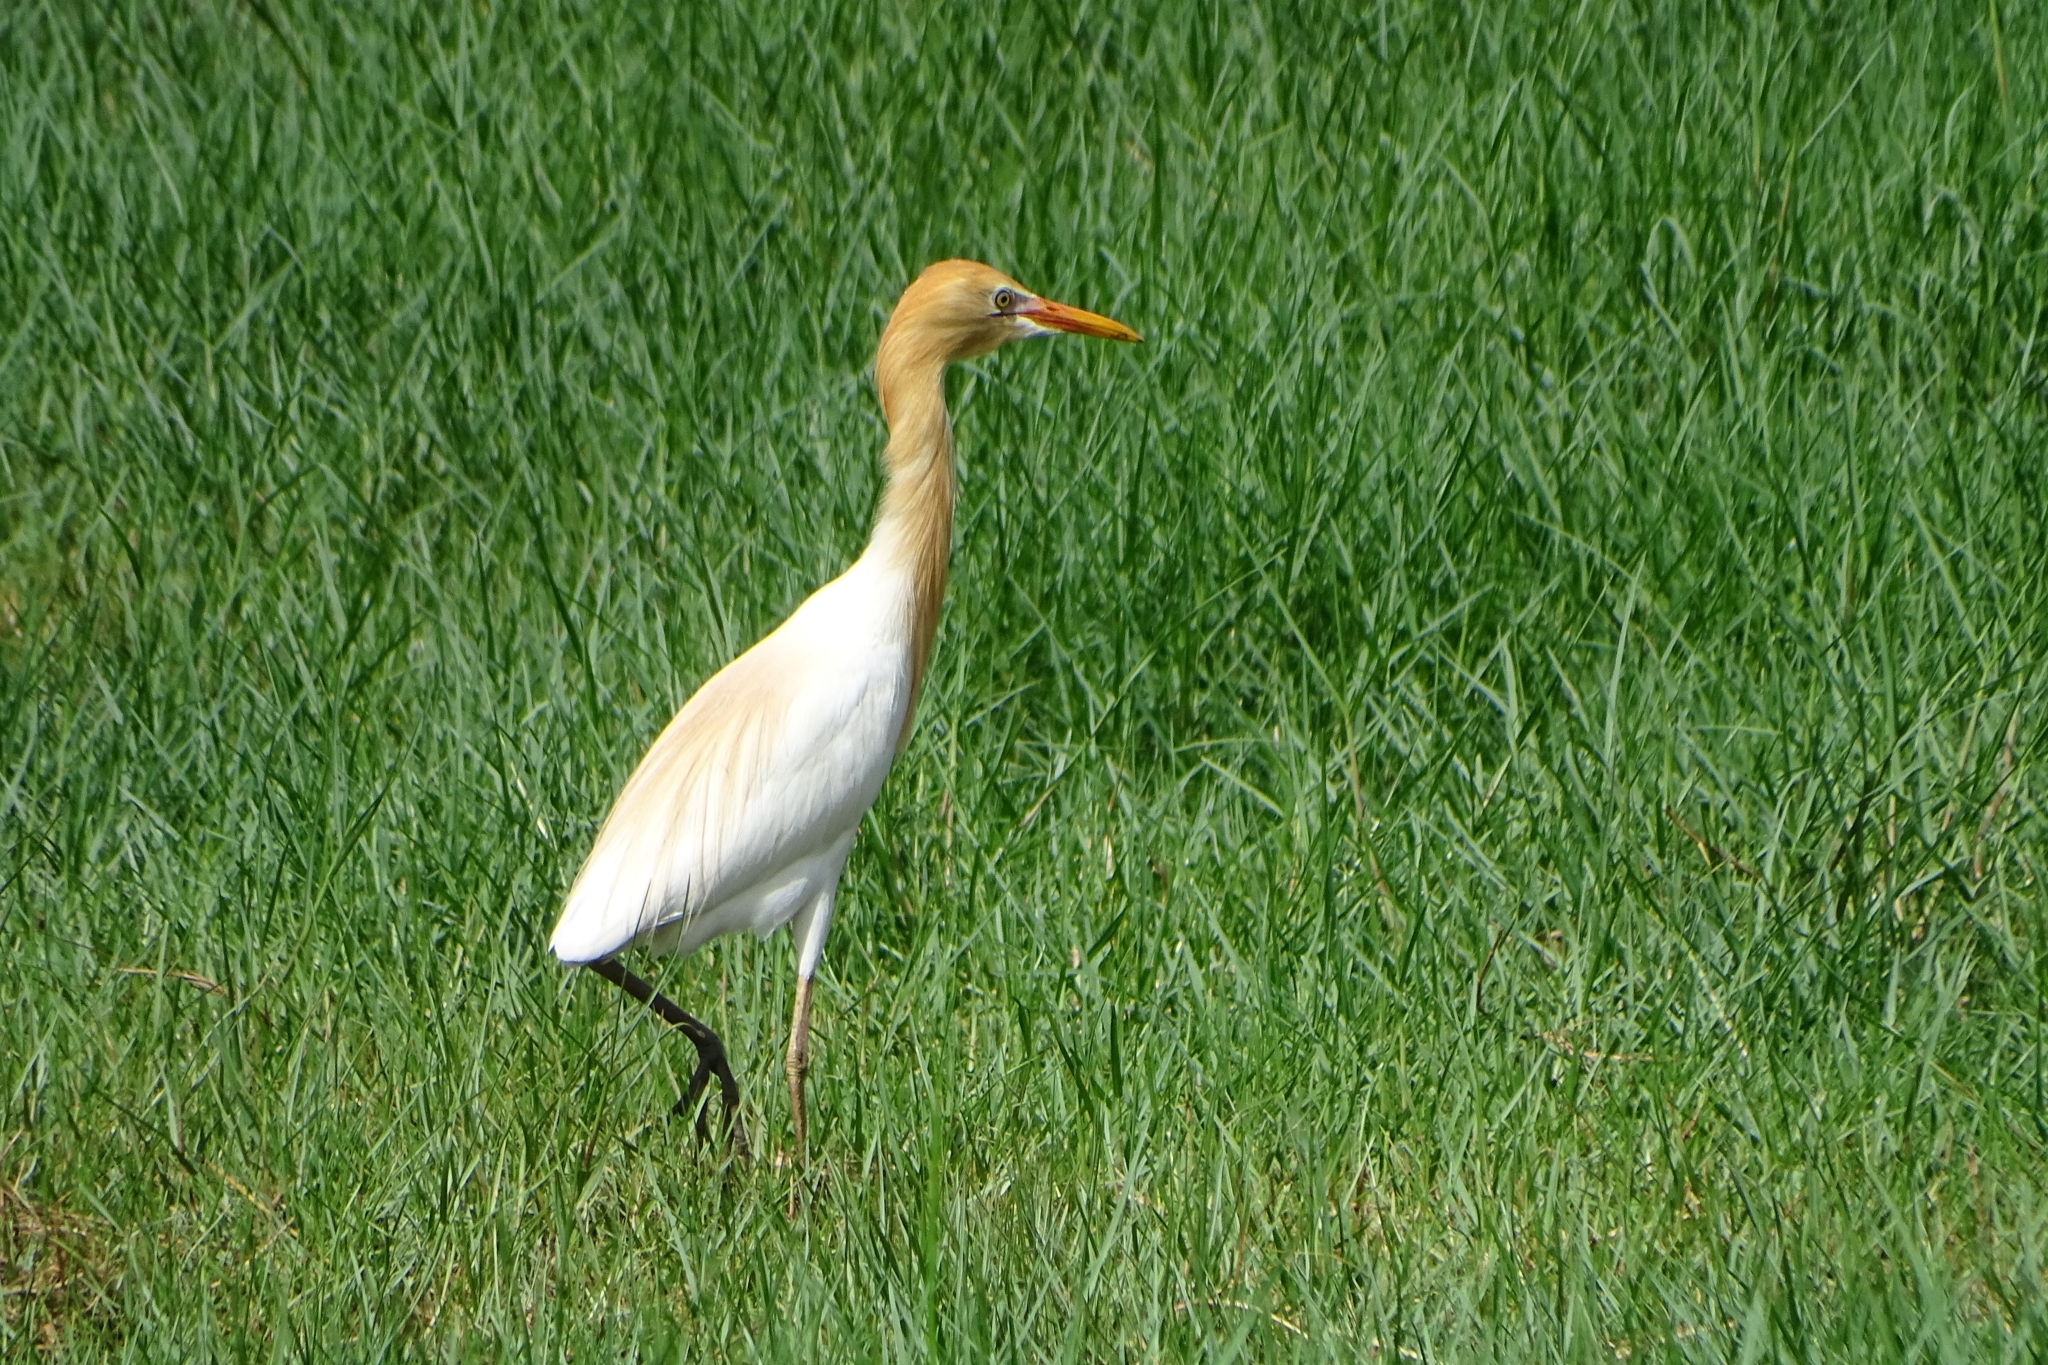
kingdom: Animalia
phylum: Chordata
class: Aves
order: Pelecaniformes
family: Ardeidae
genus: Bubulcus
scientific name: Bubulcus coromandus
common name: Eastern cattle egret
